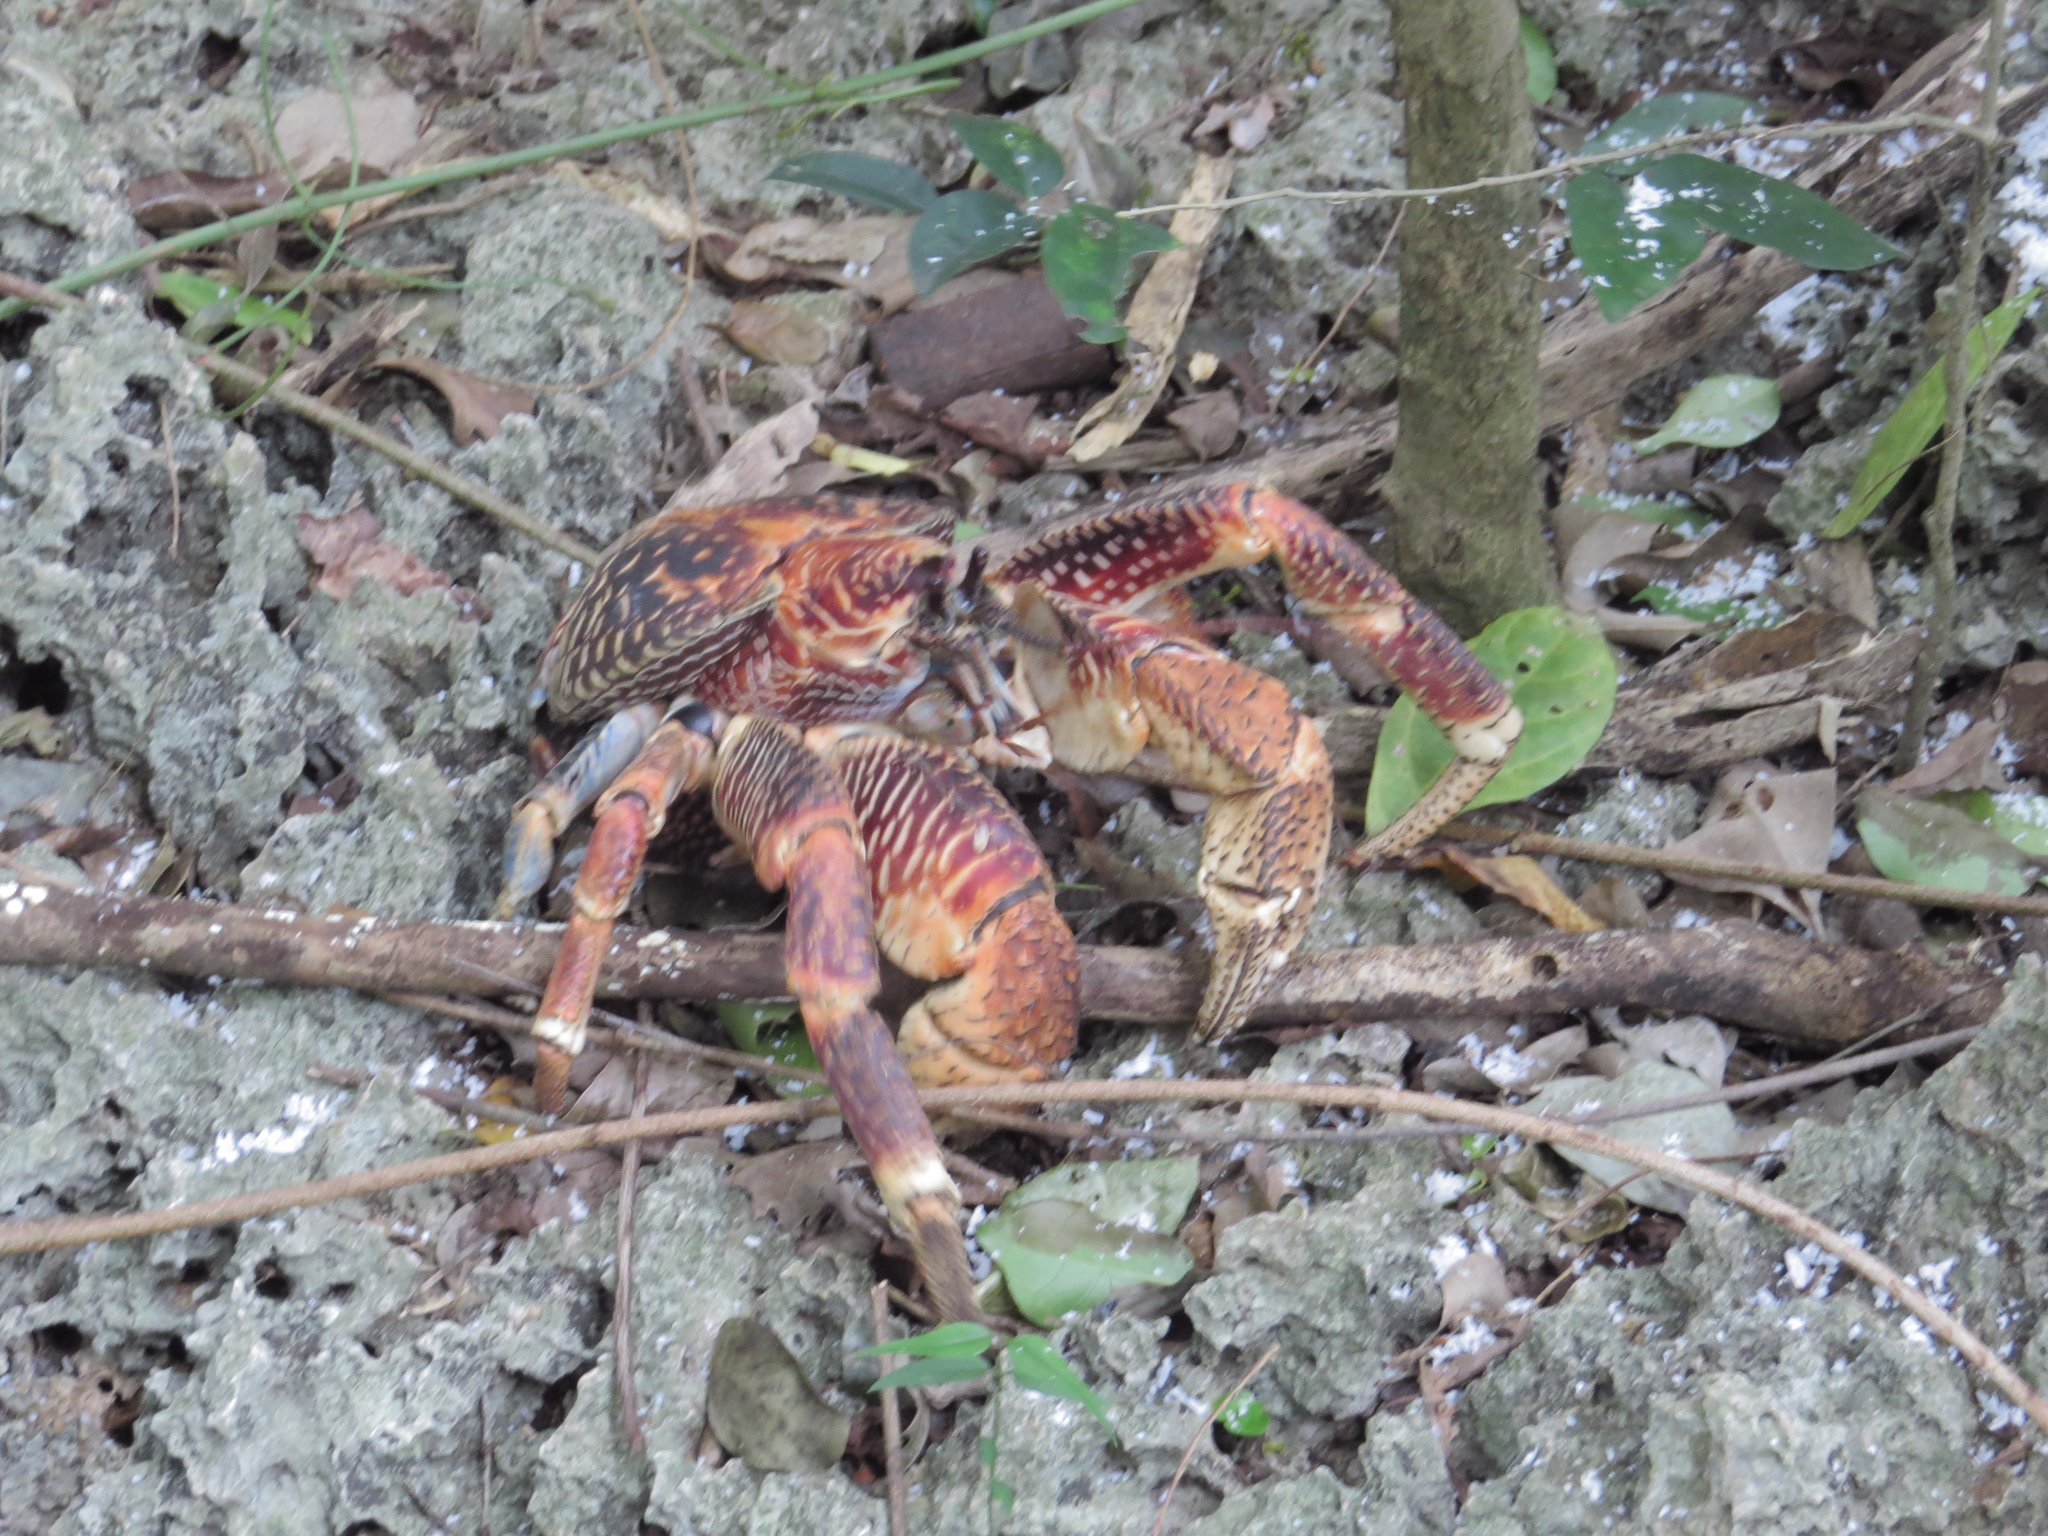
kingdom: Animalia
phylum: Arthropoda
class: Malacostraca
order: Decapoda
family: Coenobitidae
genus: Birgus
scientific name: Birgus latro
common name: Coconut crab
